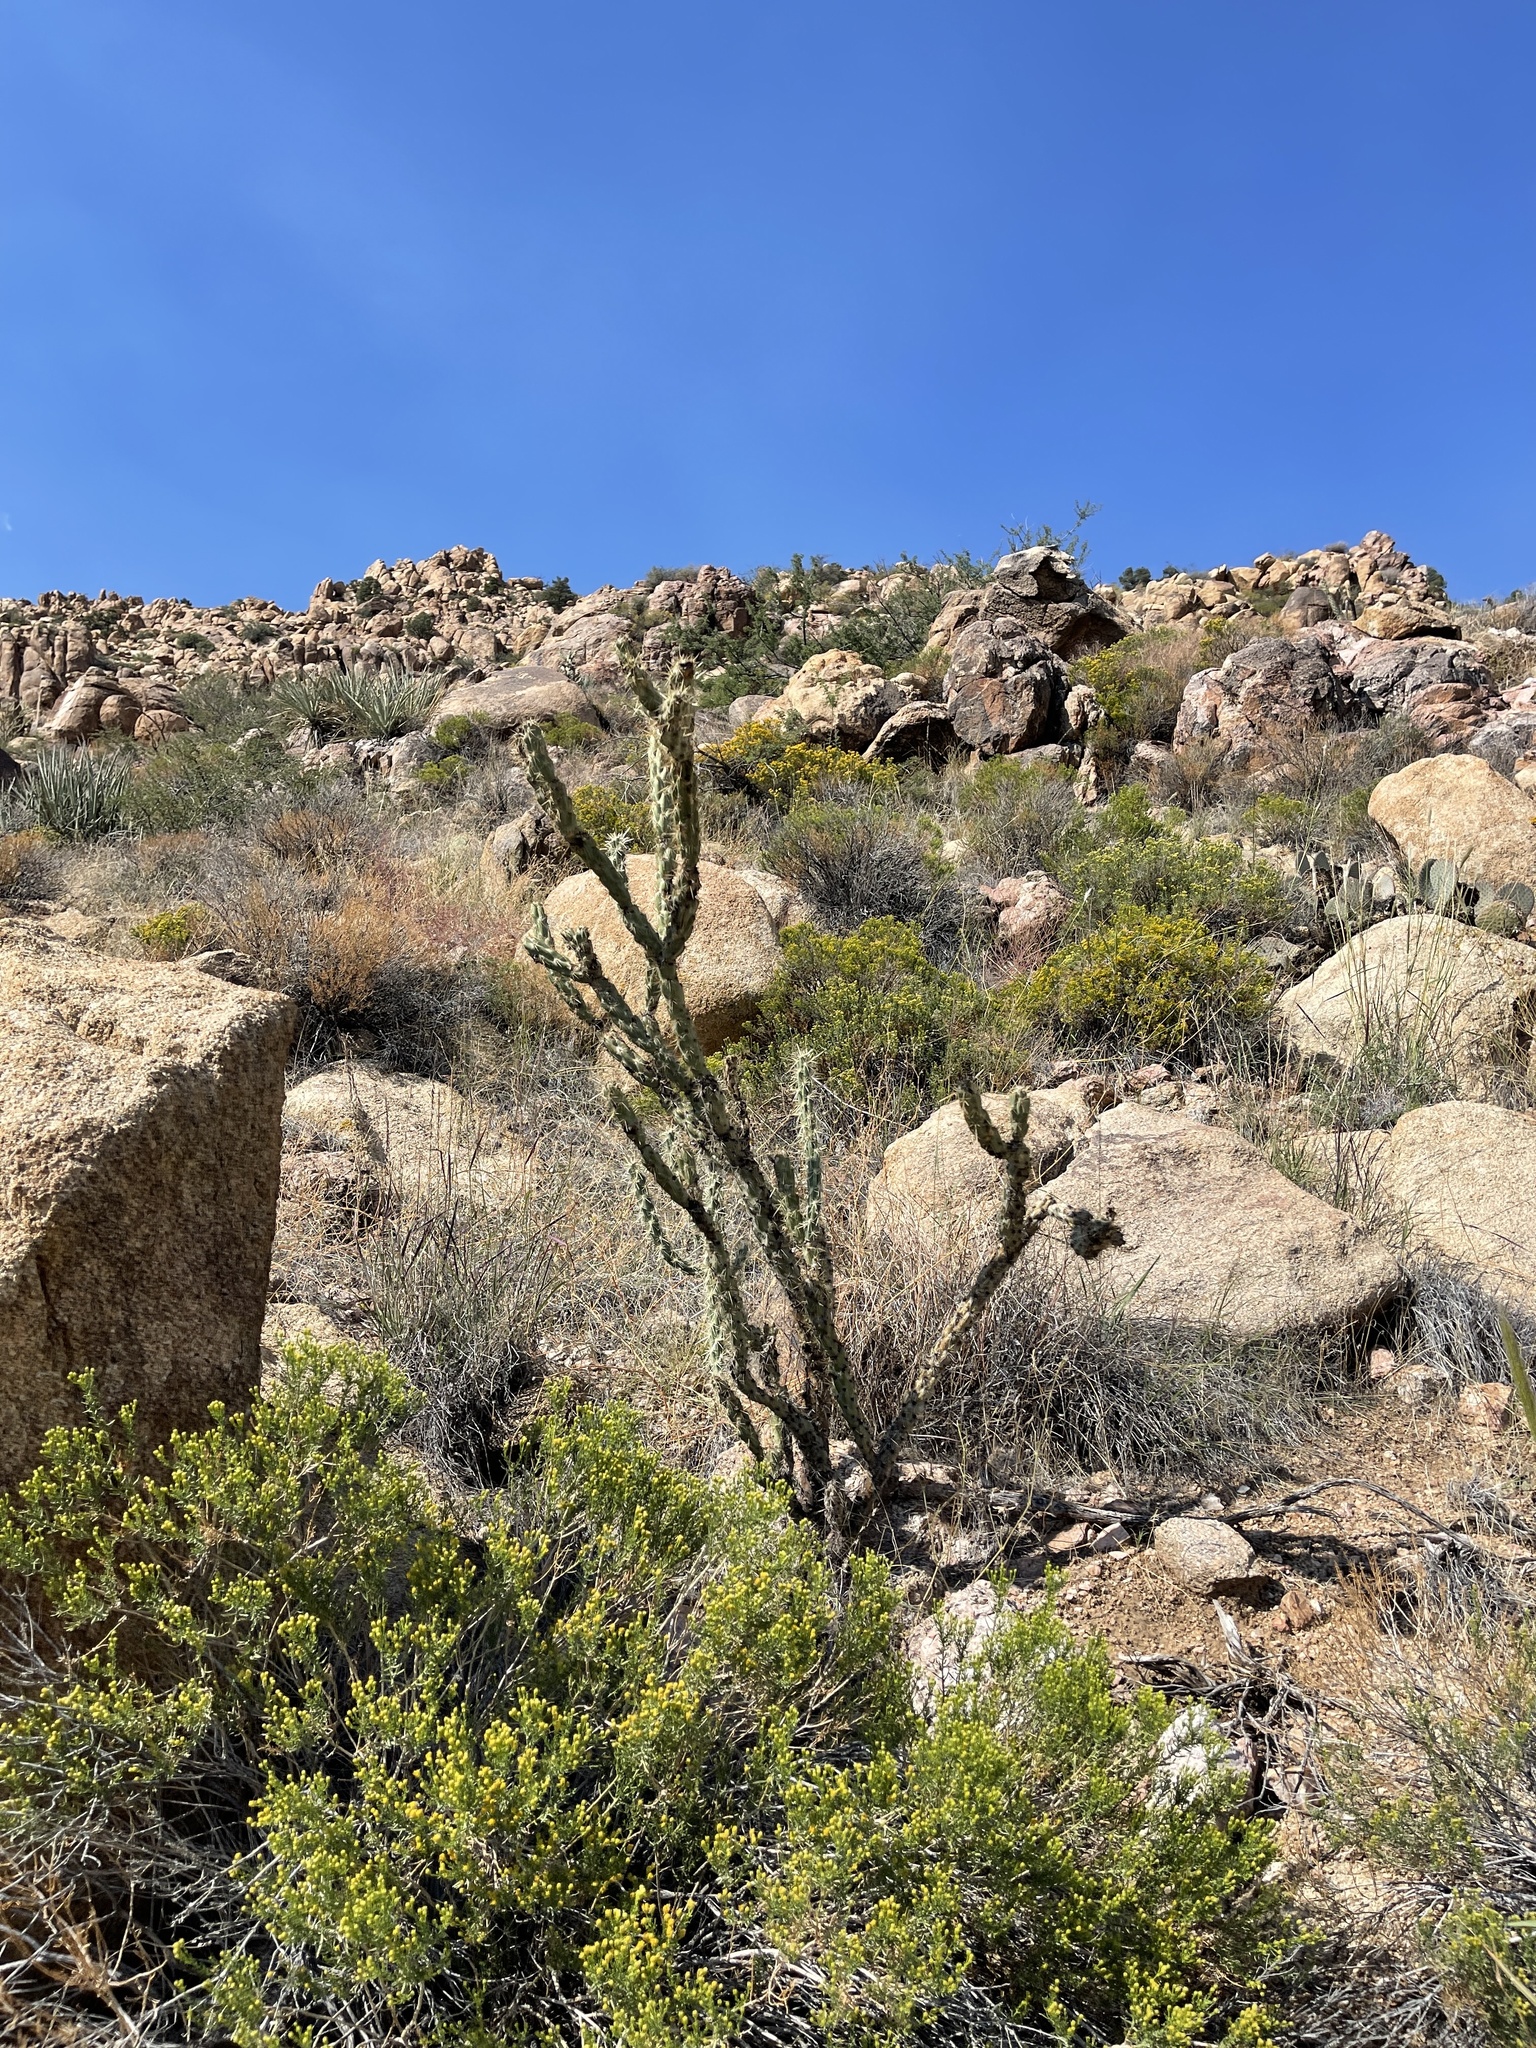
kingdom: Plantae
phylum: Tracheophyta
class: Magnoliopsida
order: Caryophyllales
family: Cactaceae
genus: Cylindropuntia
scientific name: Cylindropuntia acanthocarpa
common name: Buckhorn cholla
